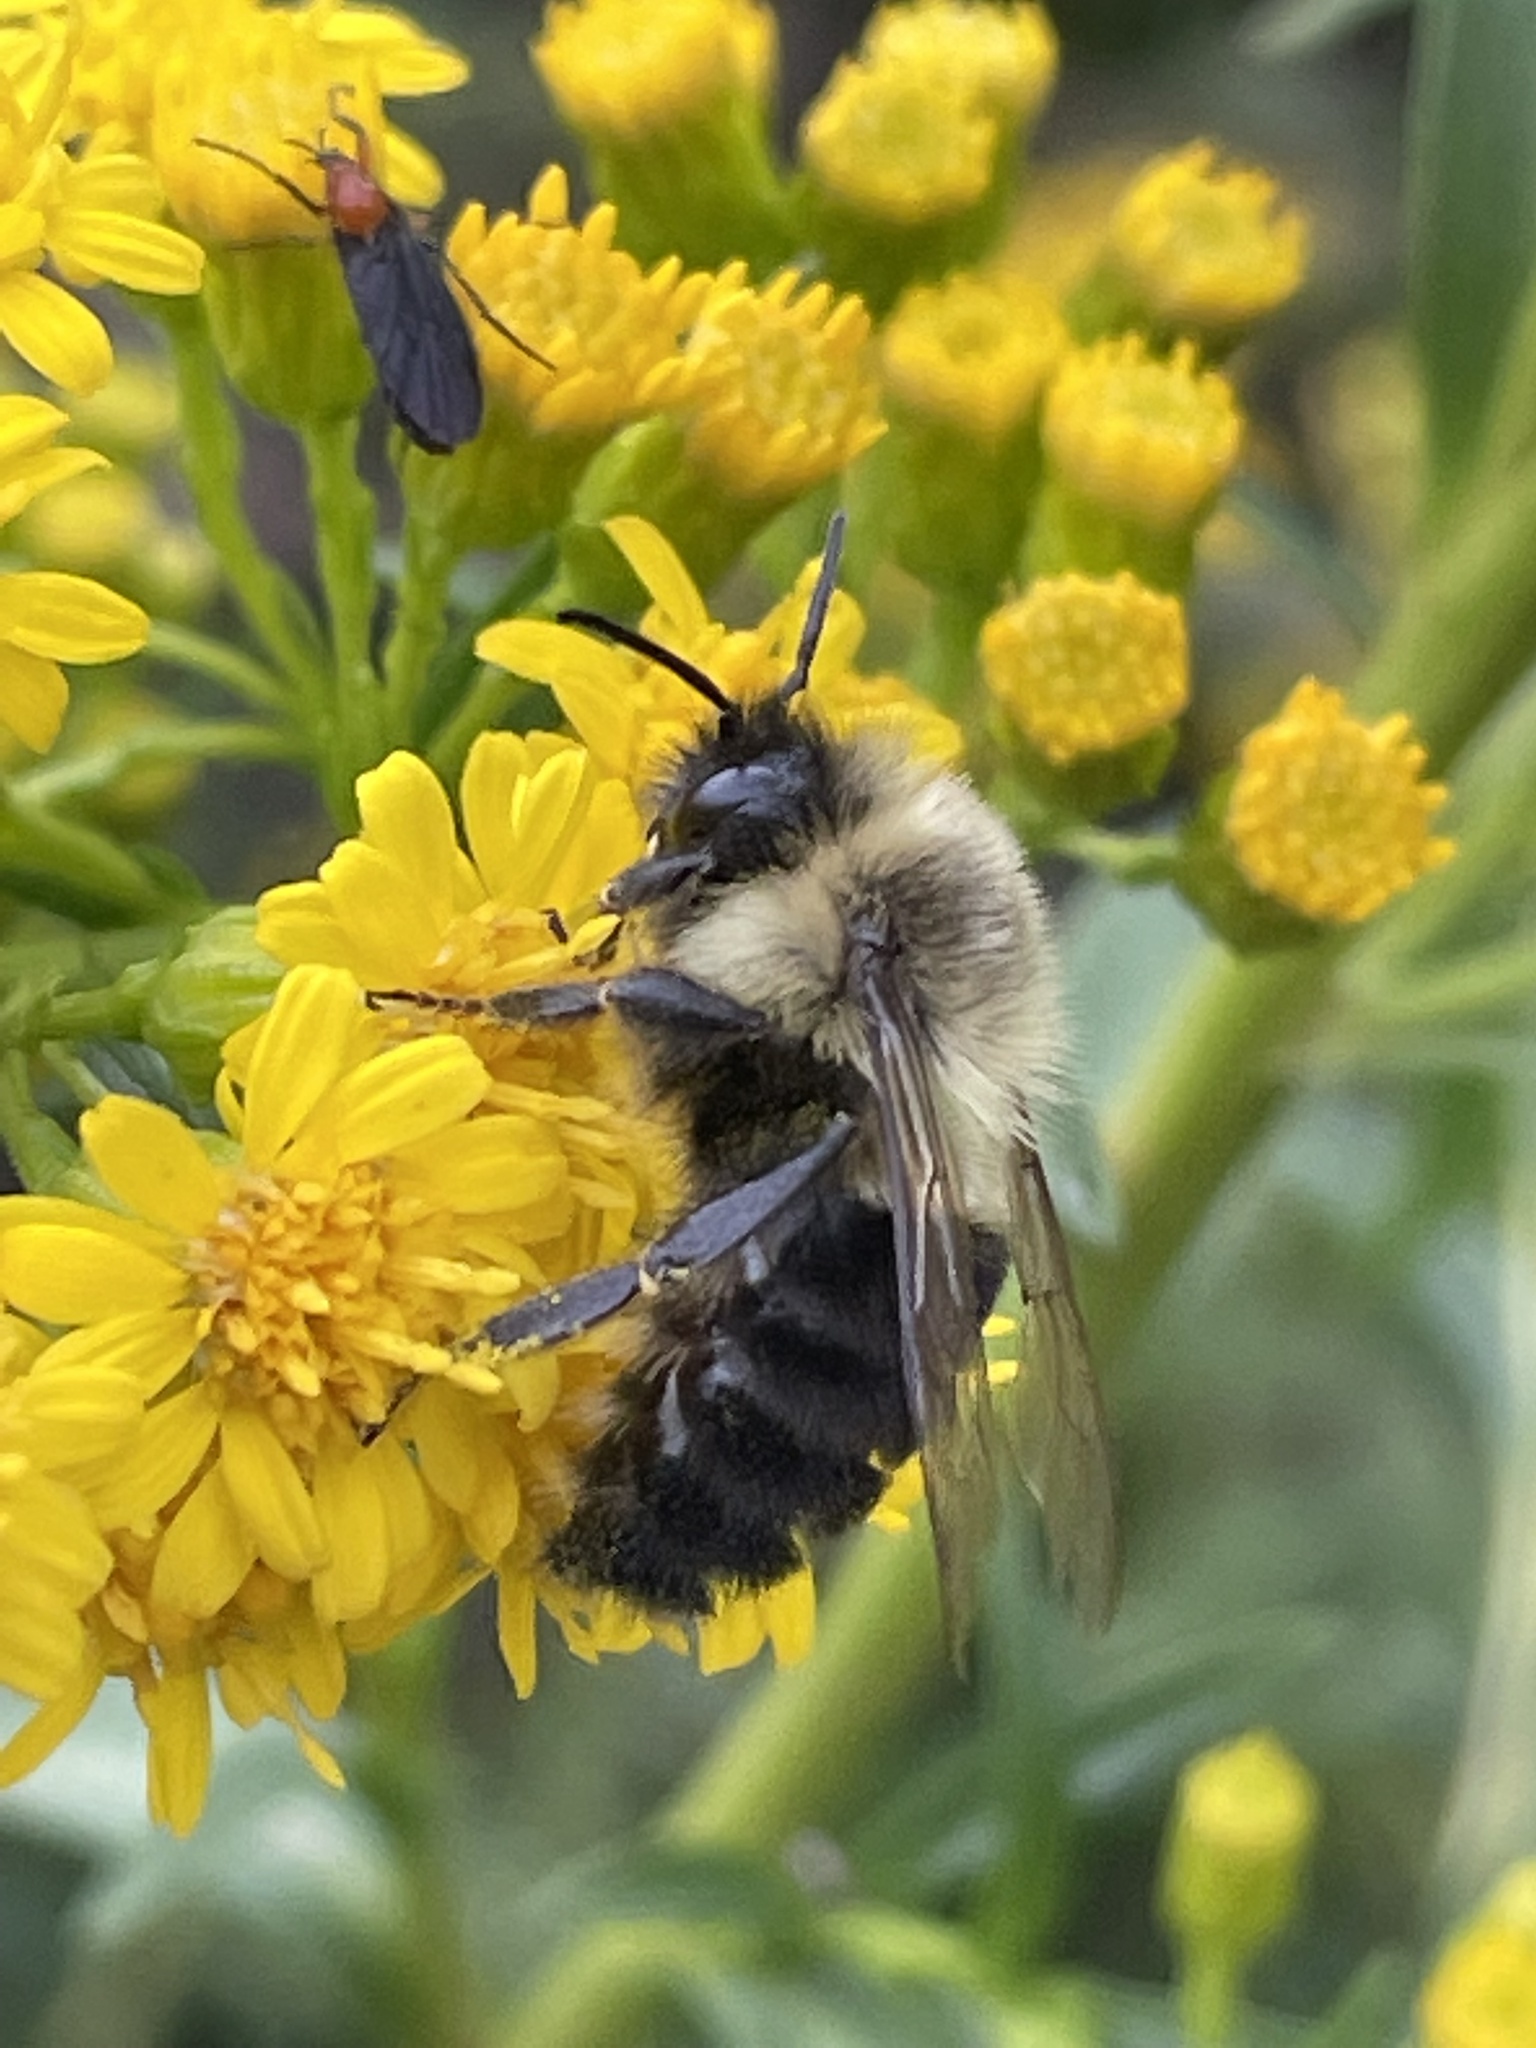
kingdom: Animalia
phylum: Arthropoda
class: Insecta
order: Hymenoptera
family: Apidae
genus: Bombus
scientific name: Bombus impatiens
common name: Common eastern bumble bee
